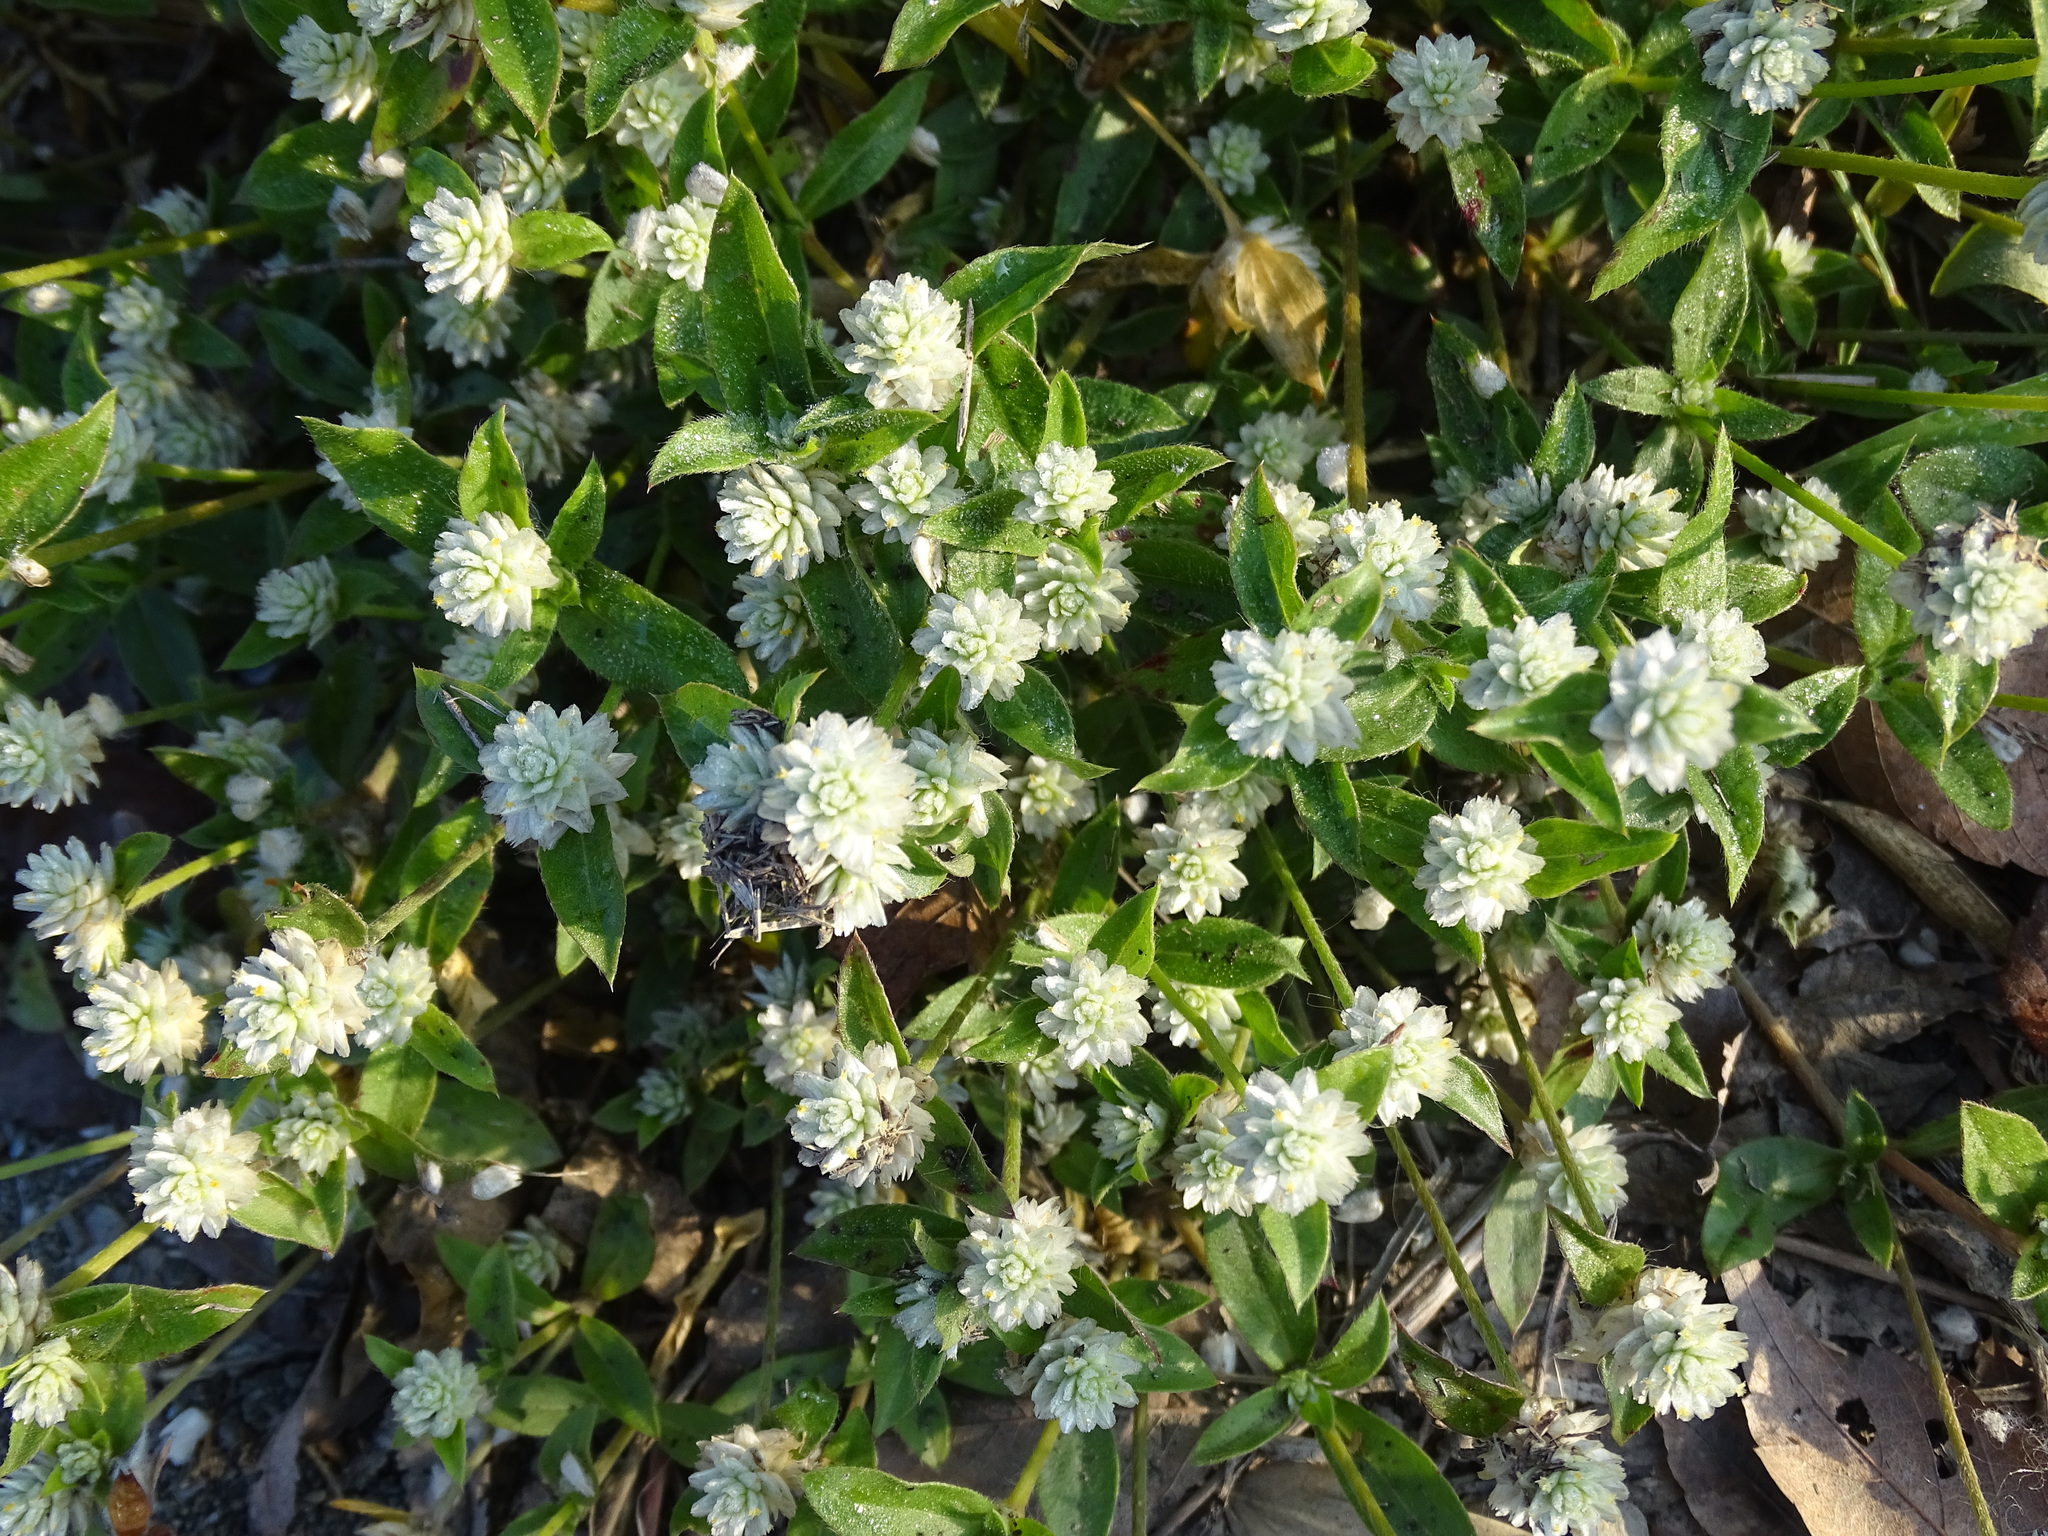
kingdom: Plantae
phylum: Tracheophyta
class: Magnoliopsida
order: Caryophyllales
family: Amaranthaceae
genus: Gomphrena
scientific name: Gomphrena serrata
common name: Arrasa con todo
